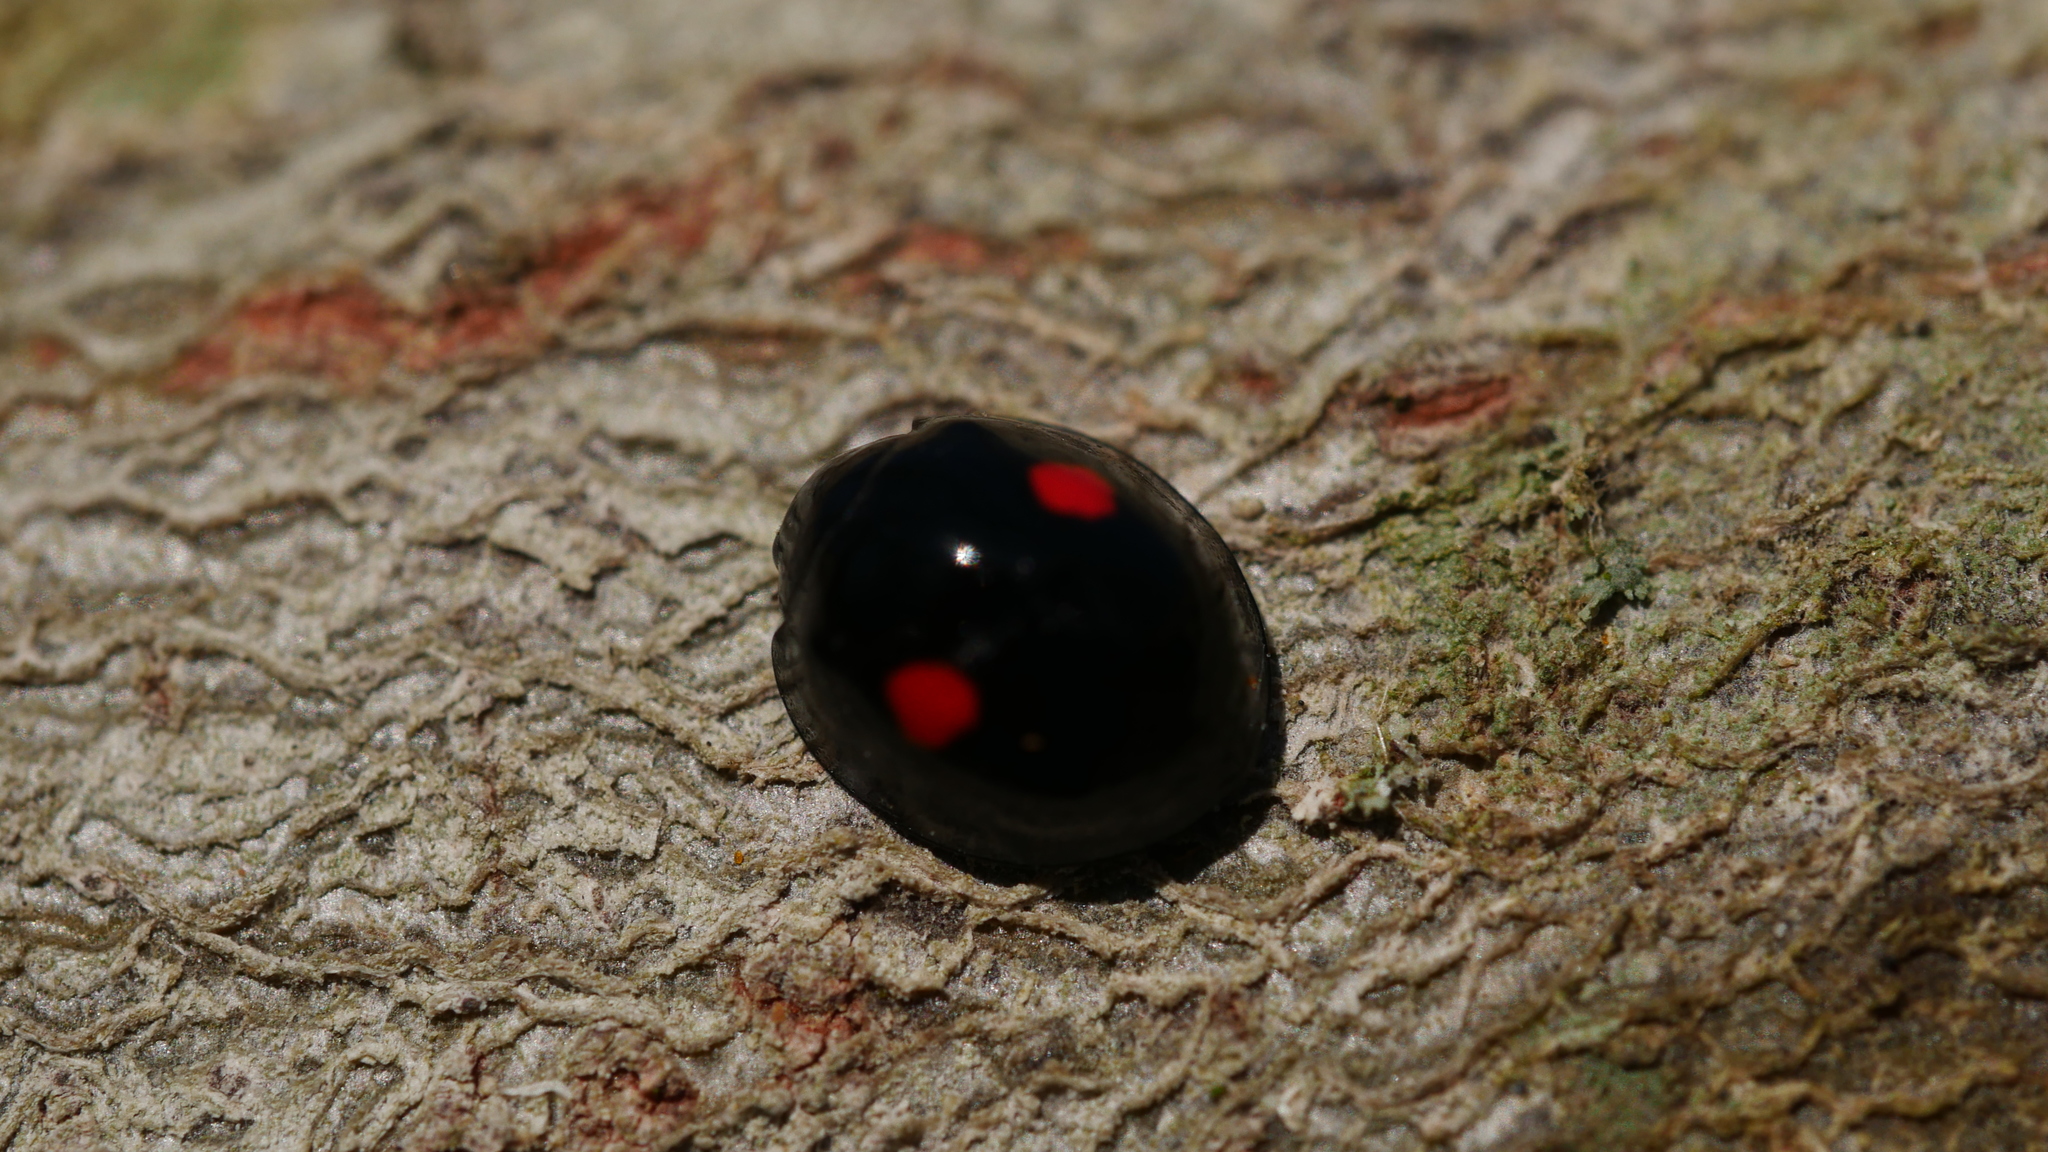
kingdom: Animalia
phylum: Arthropoda
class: Insecta
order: Coleoptera
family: Coccinellidae
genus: Chilocorus
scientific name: Chilocorus stigma
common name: Twicestabbed lady beetle
